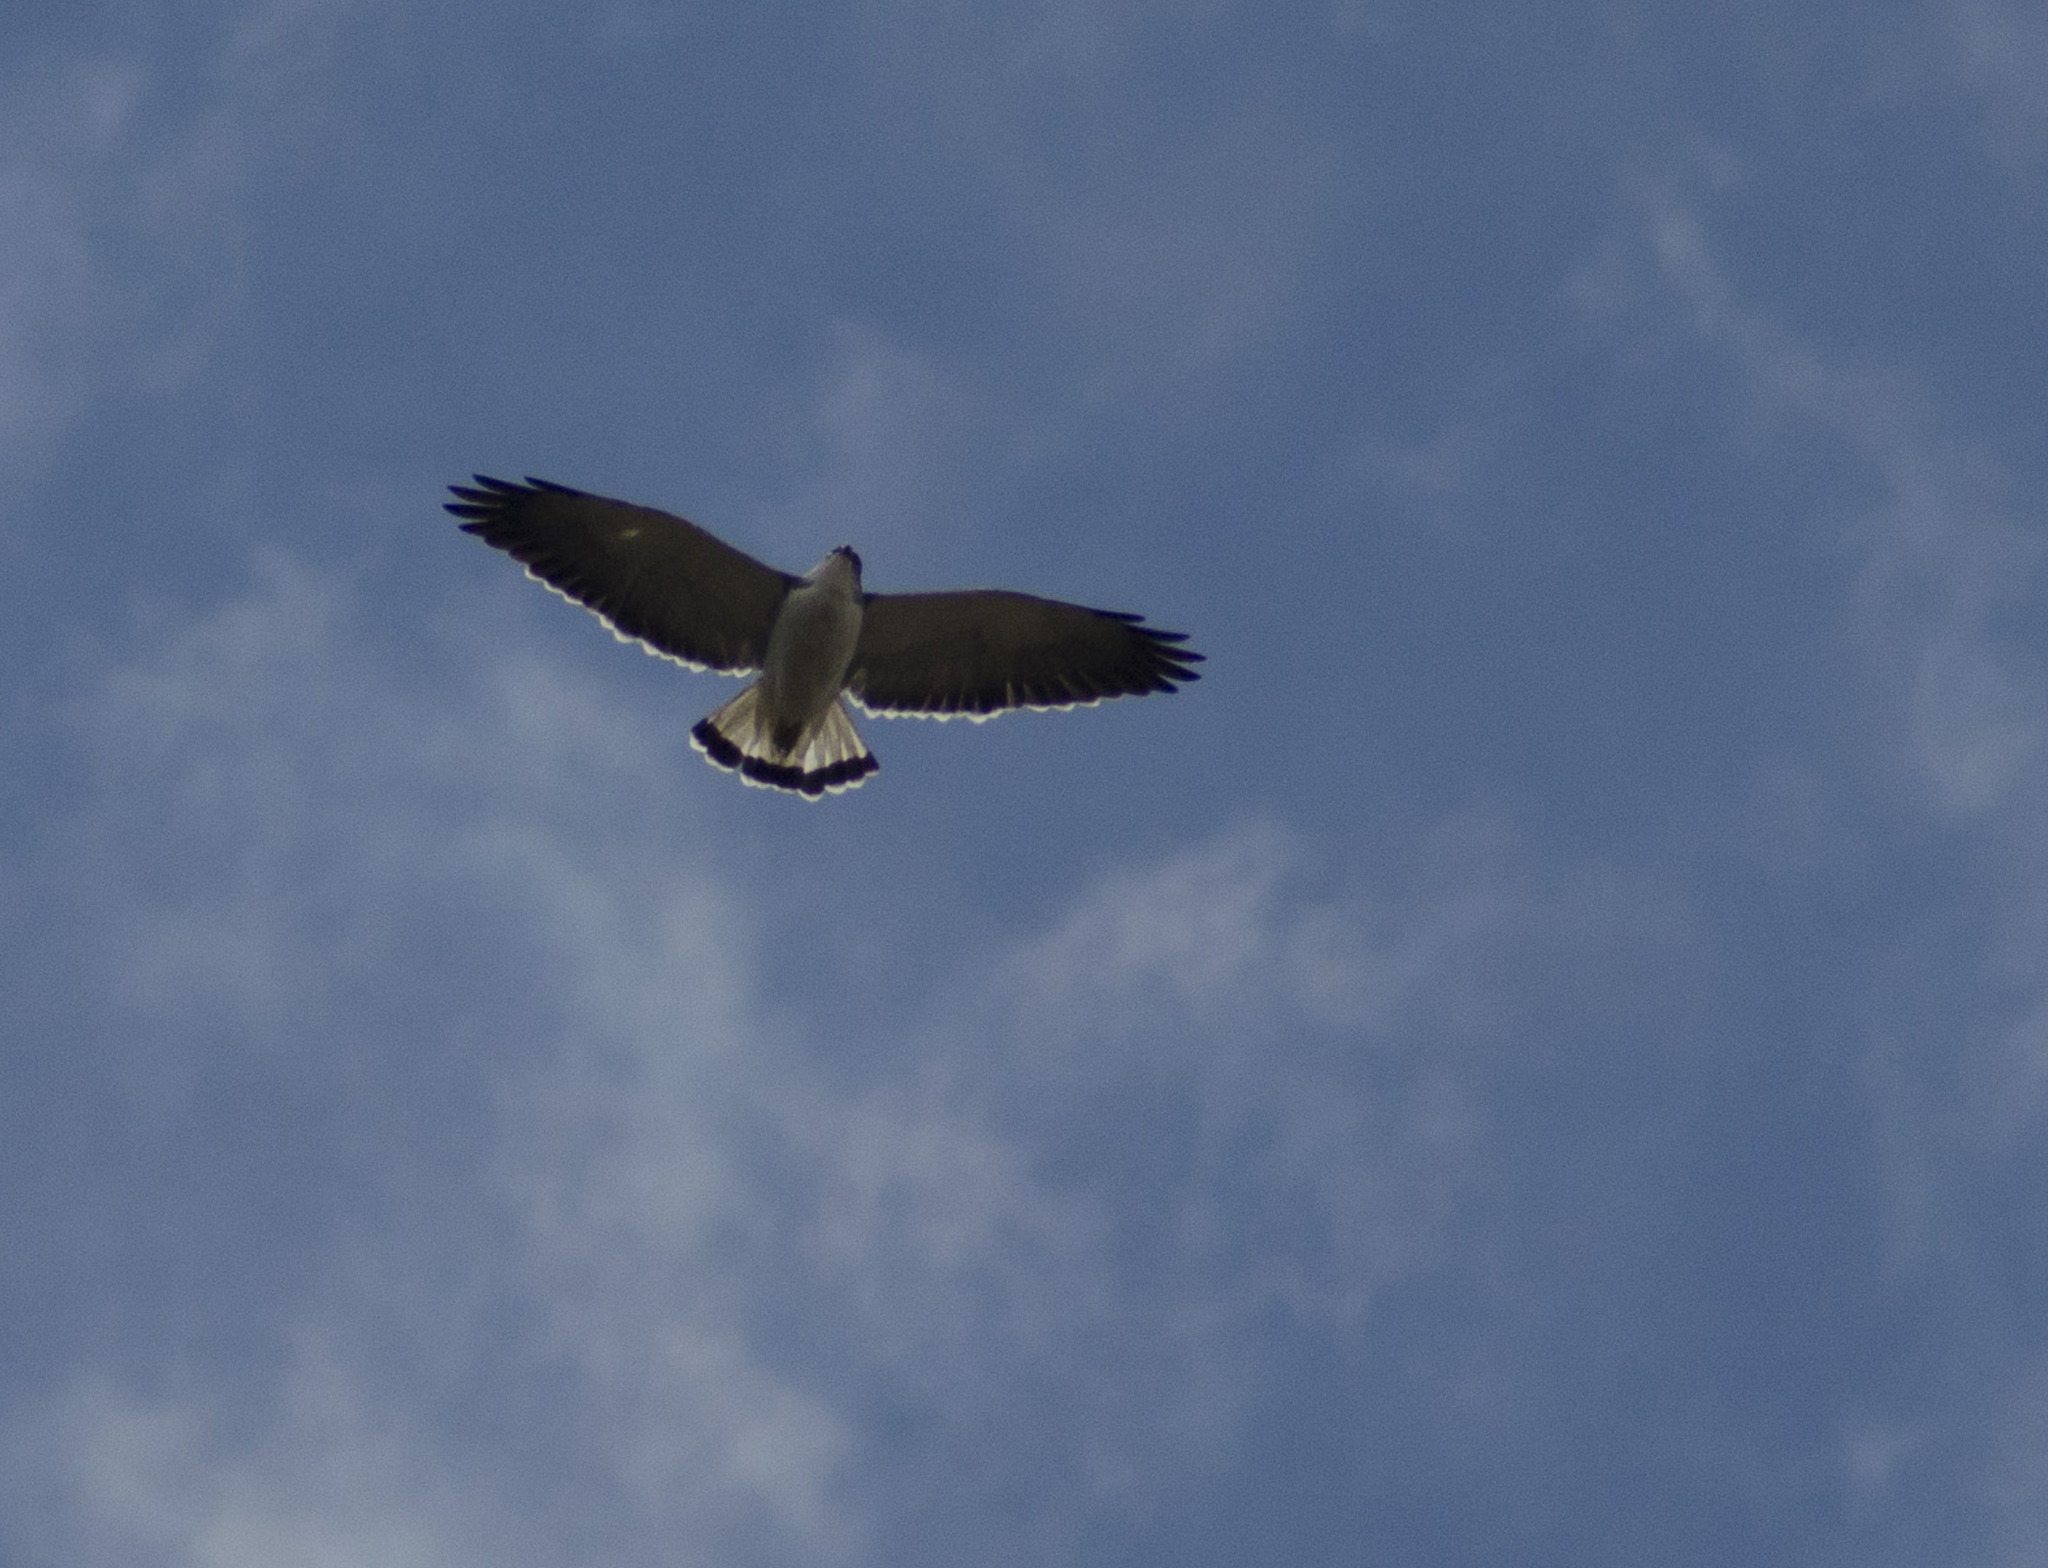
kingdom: Animalia
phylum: Chordata
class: Aves
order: Accipitriformes
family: Accipitridae
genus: Buteo
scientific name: Buteo polyosoma
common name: Variable hawk
